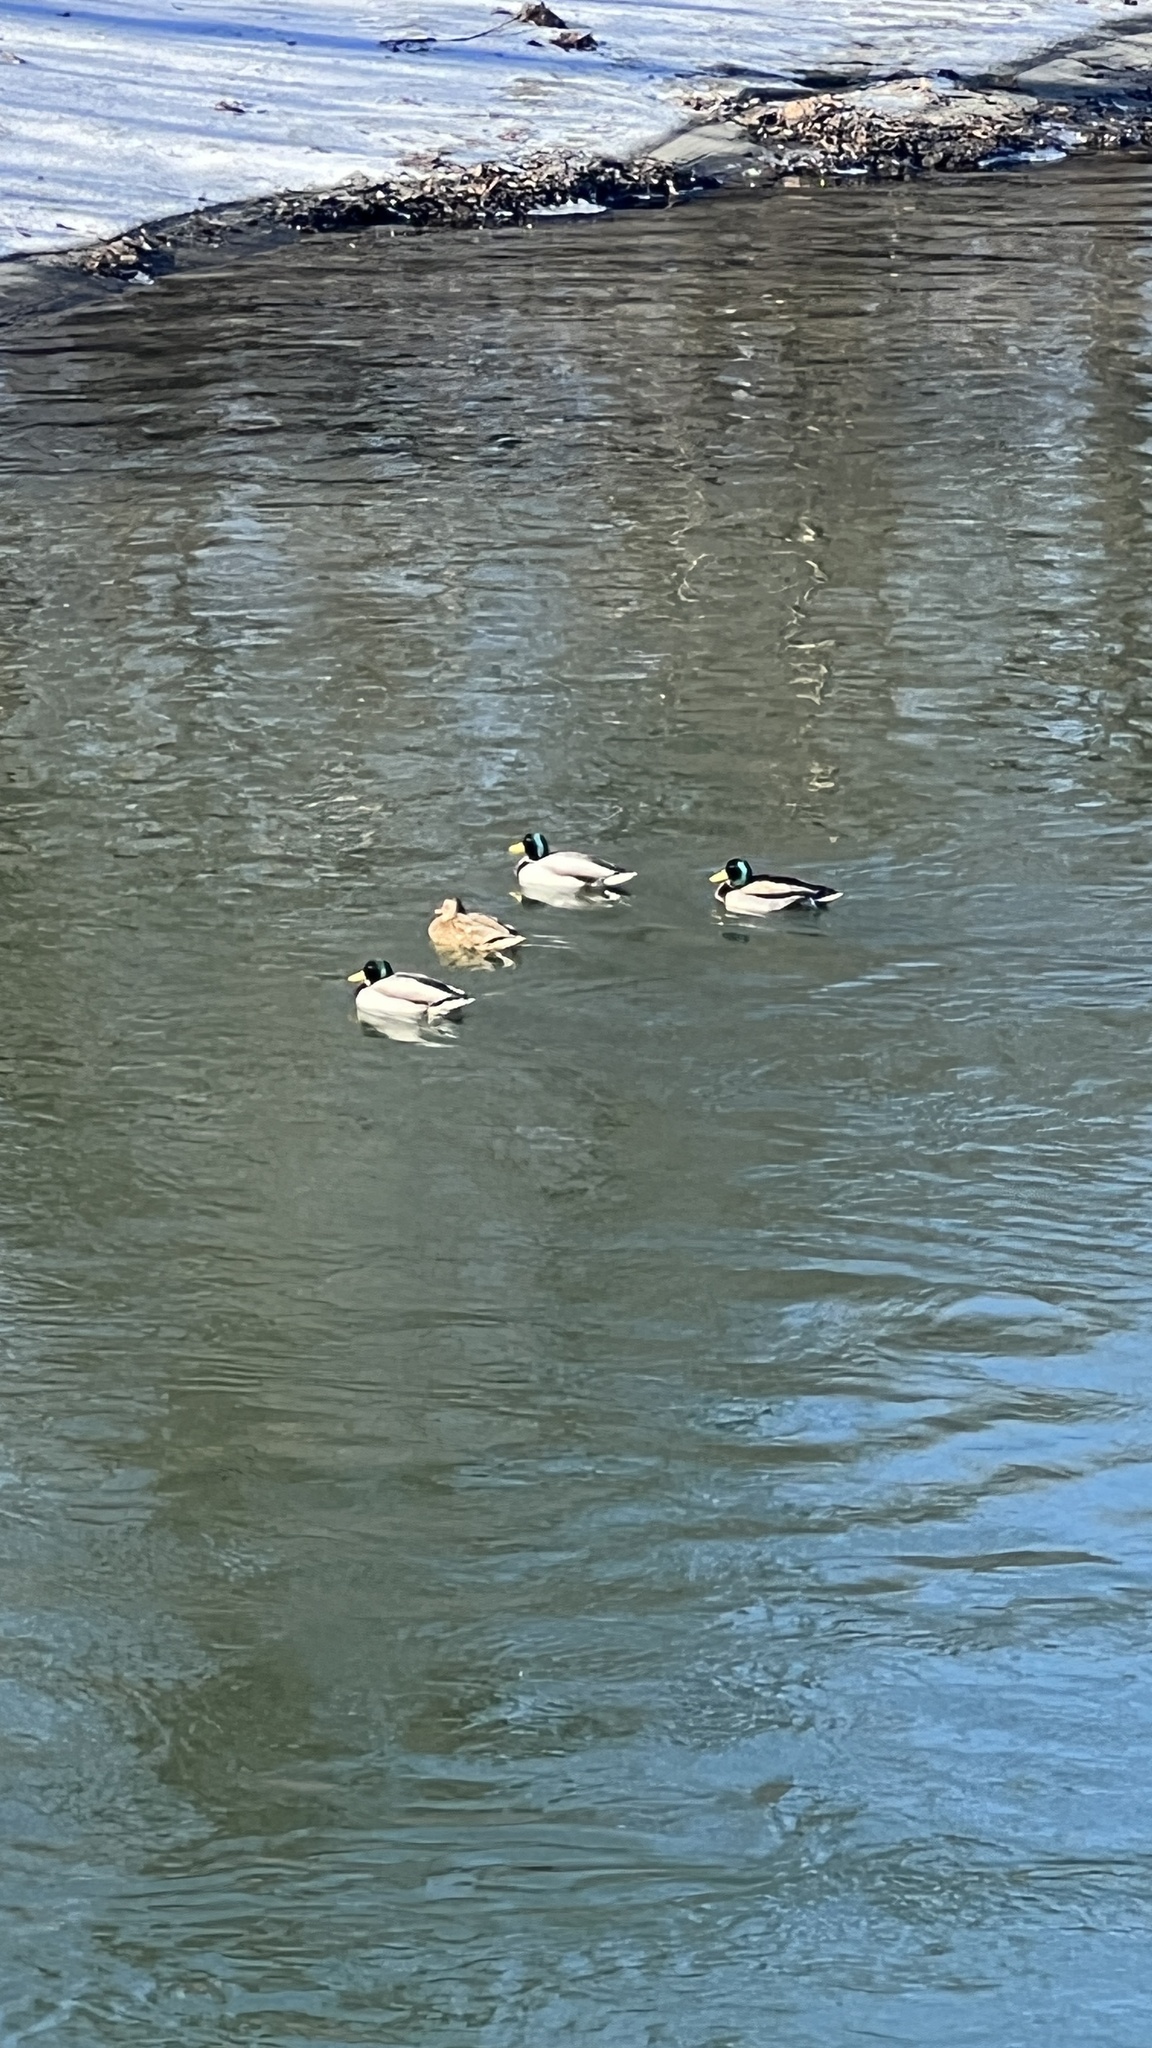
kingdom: Animalia
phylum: Chordata
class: Aves
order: Anseriformes
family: Anatidae
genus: Anas
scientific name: Anas platyrhynchos
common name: Mallard
